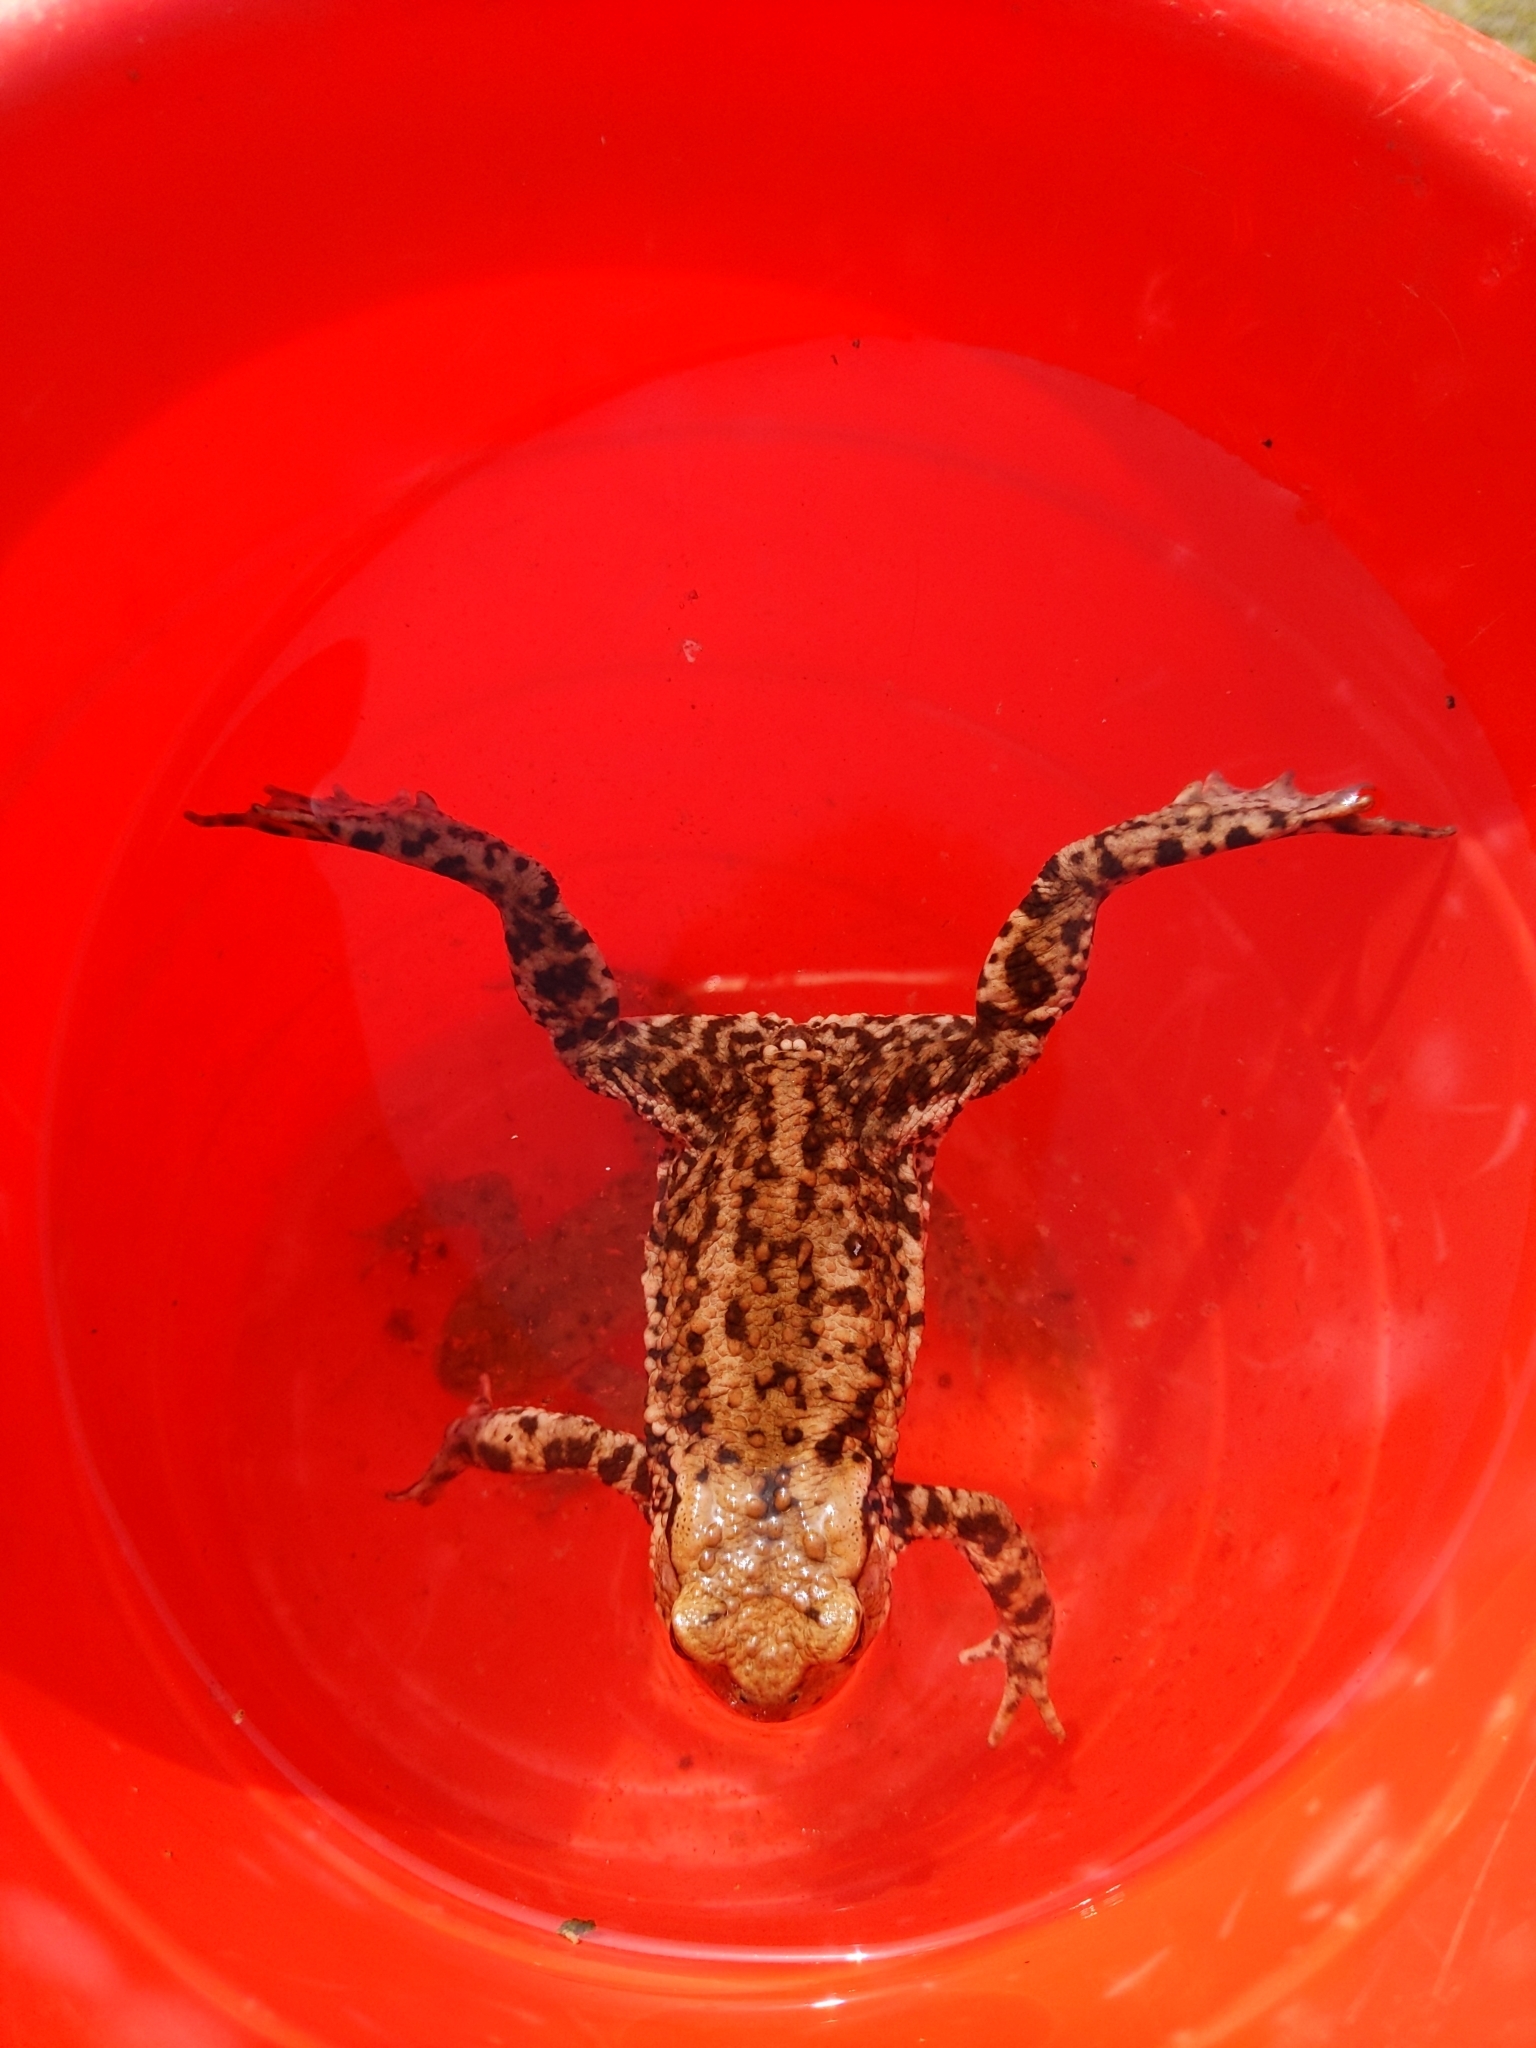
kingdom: Animalia
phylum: Chordata
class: Amphibia
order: Anura
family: Bufonidae
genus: Bufo
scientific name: Bufo bufo
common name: Common toad
